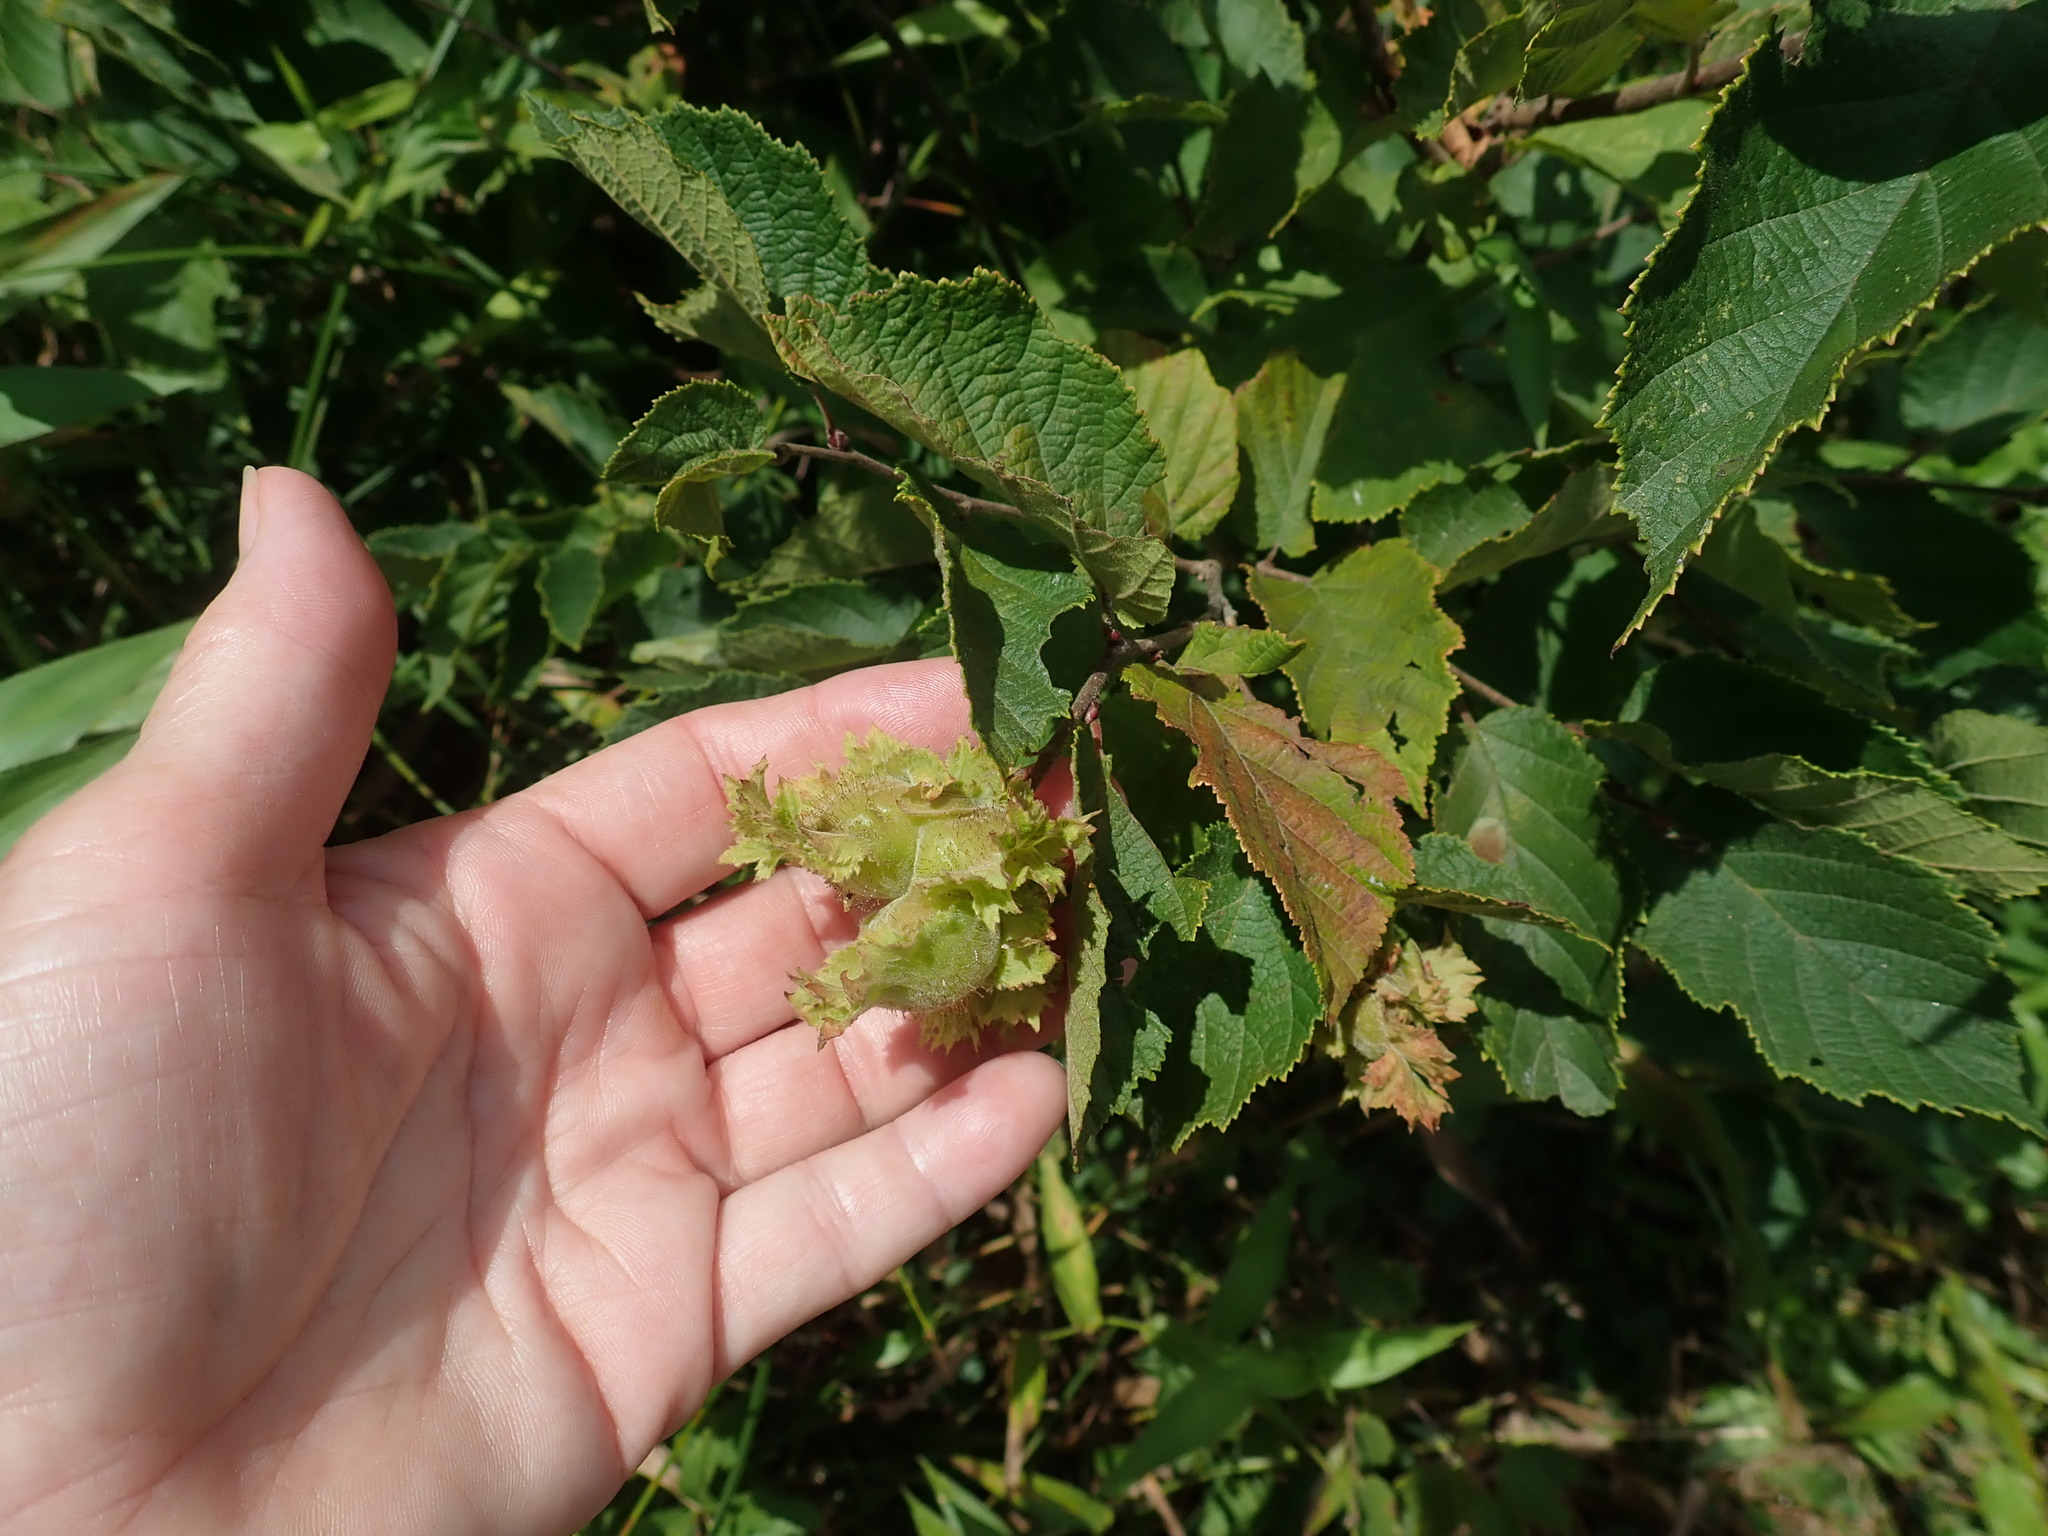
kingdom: Plantae
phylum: Tracheophyta
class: Magnoliopsida
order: Fagales
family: Betulaceae
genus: Corylus
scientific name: Corylus americana
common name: American hazel
